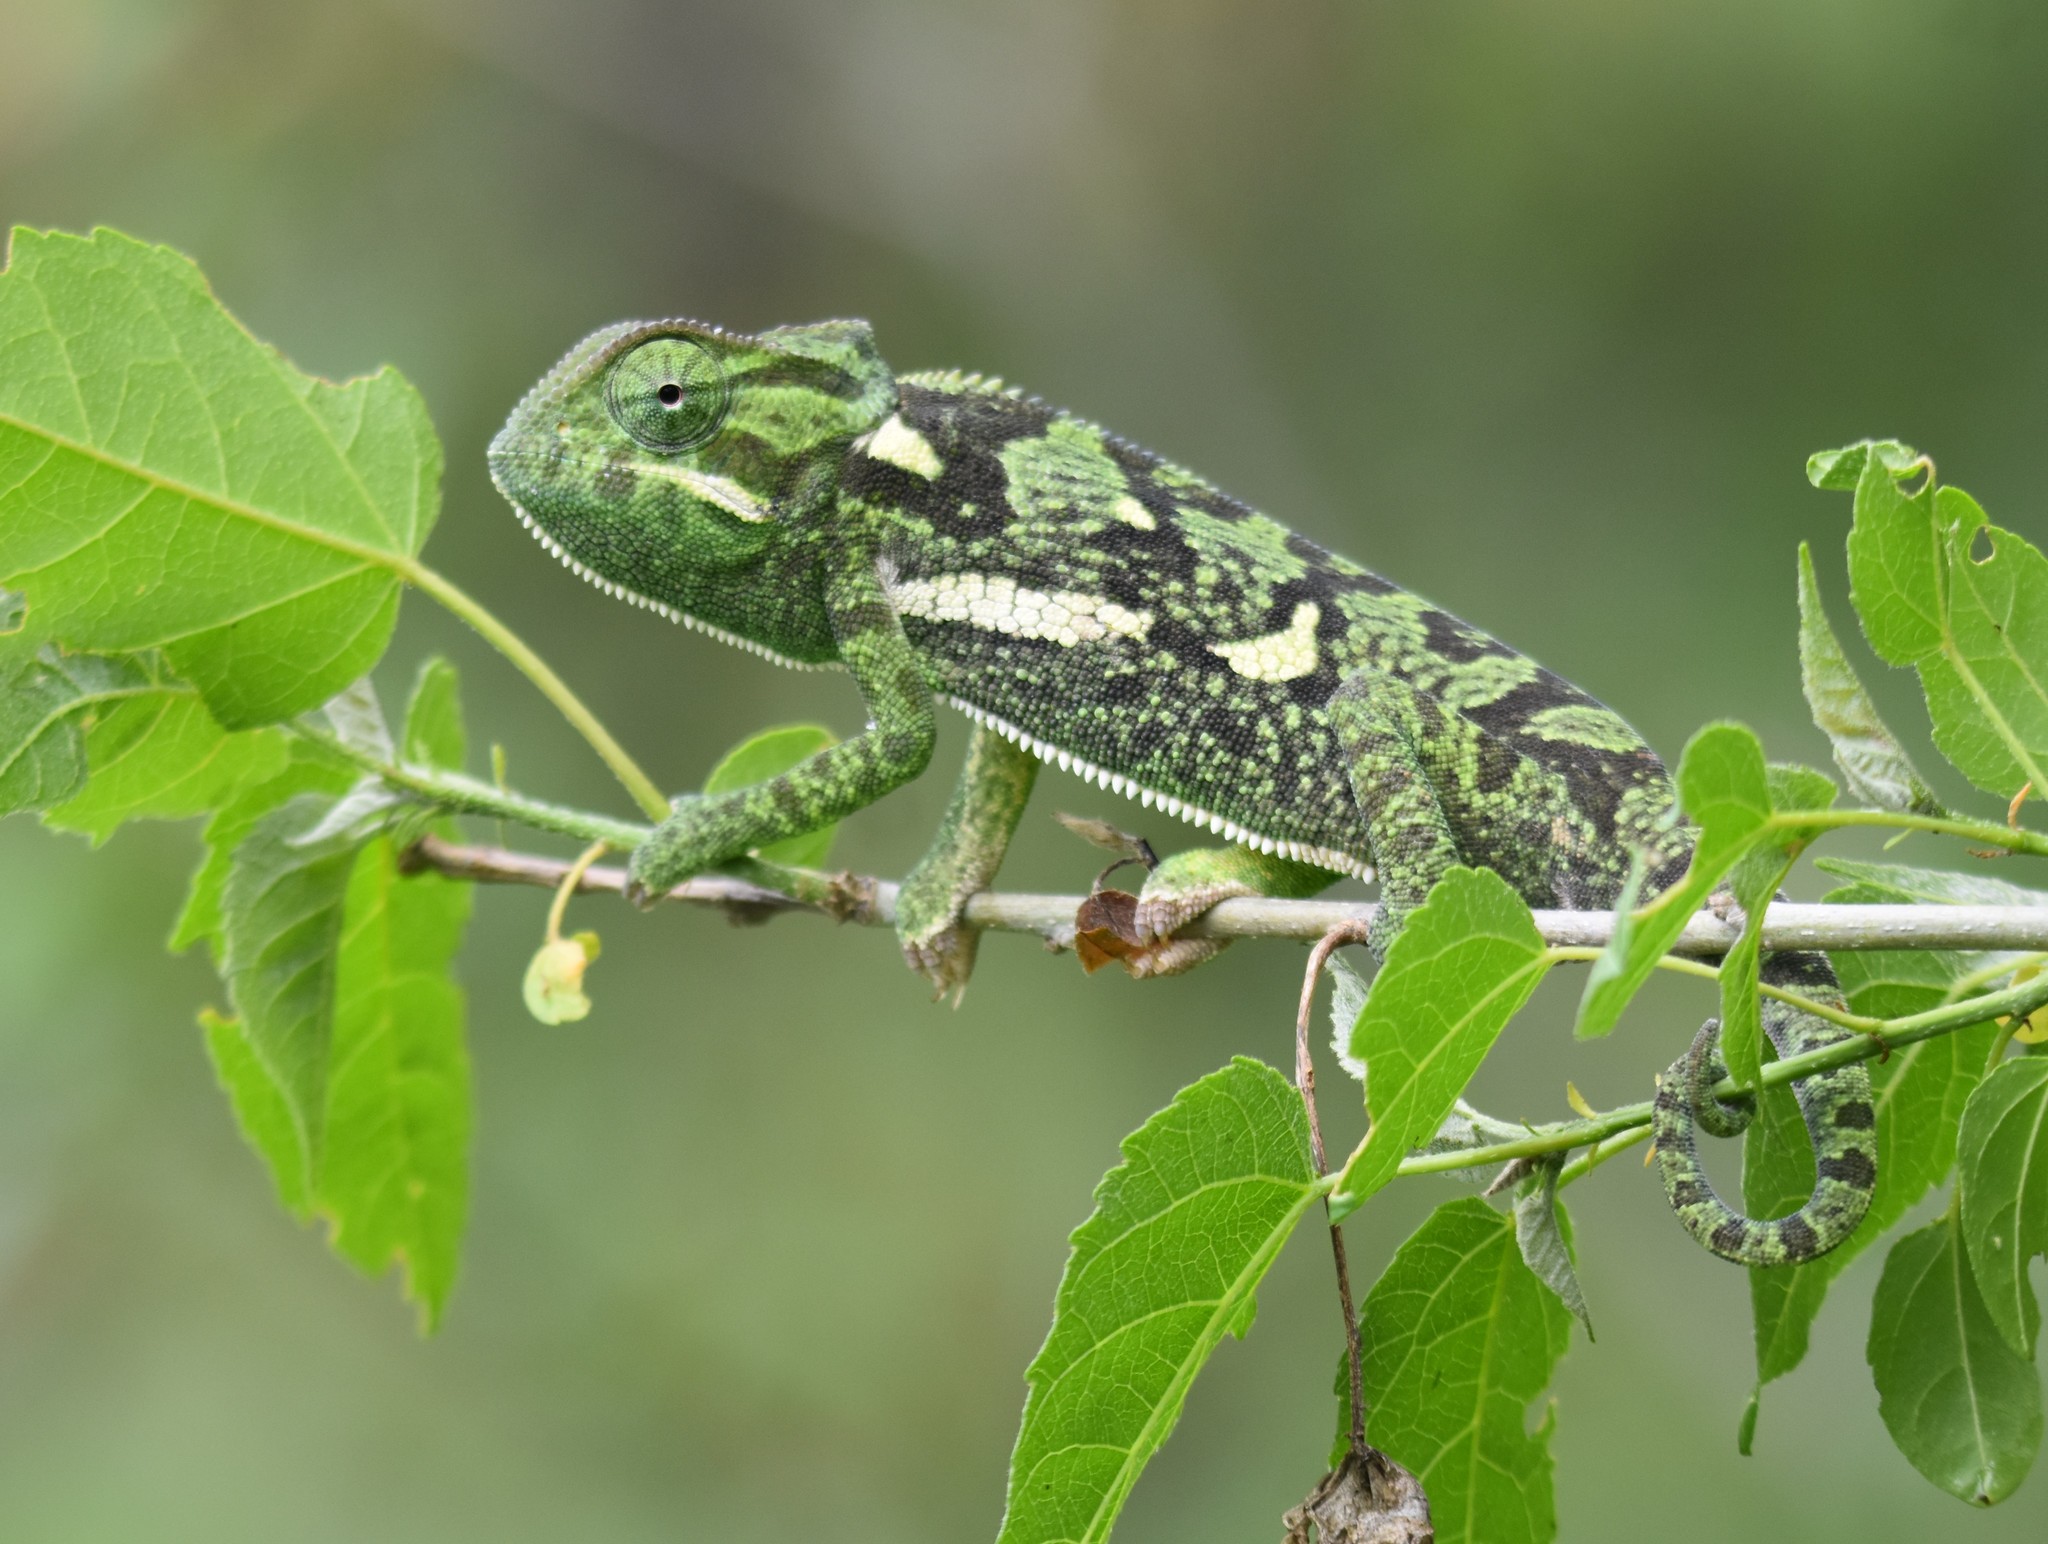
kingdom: Animalia
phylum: Chordata
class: Squamata
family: Chamaeleonidae
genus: Chamaeleo
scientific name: Chamaeleo dilepis
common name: Flapneck chameleon
